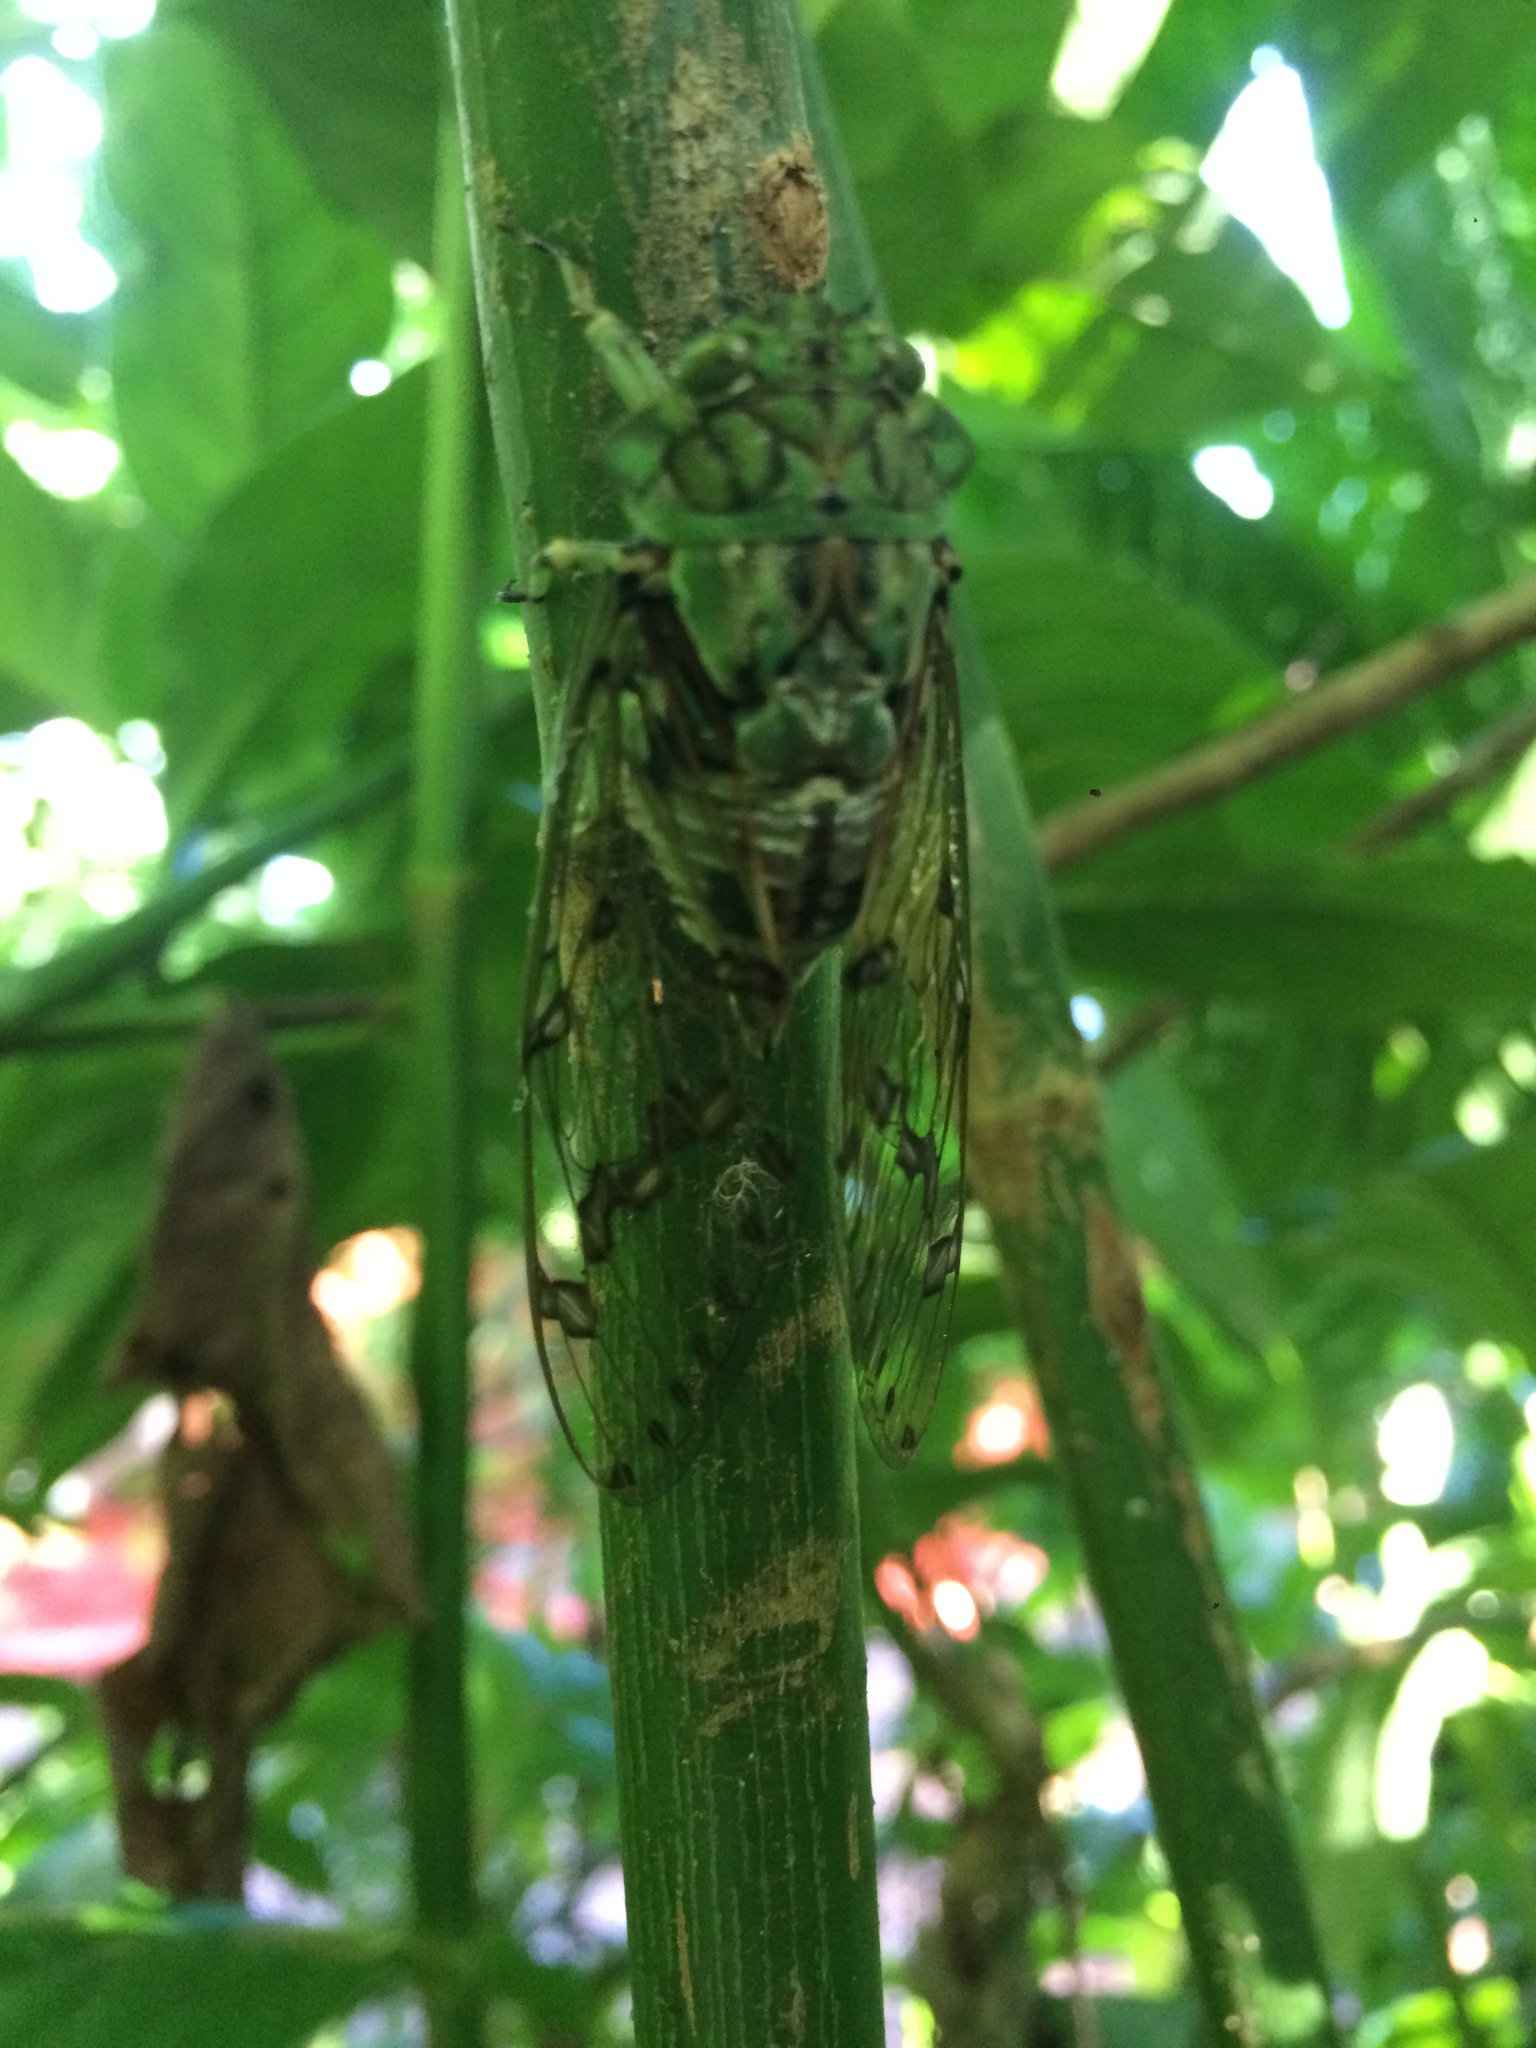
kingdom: Animalia
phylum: Arthropoda
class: Insecta
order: Hemiptera
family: Cicadidae
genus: Zammara
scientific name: Zammara tympanum
